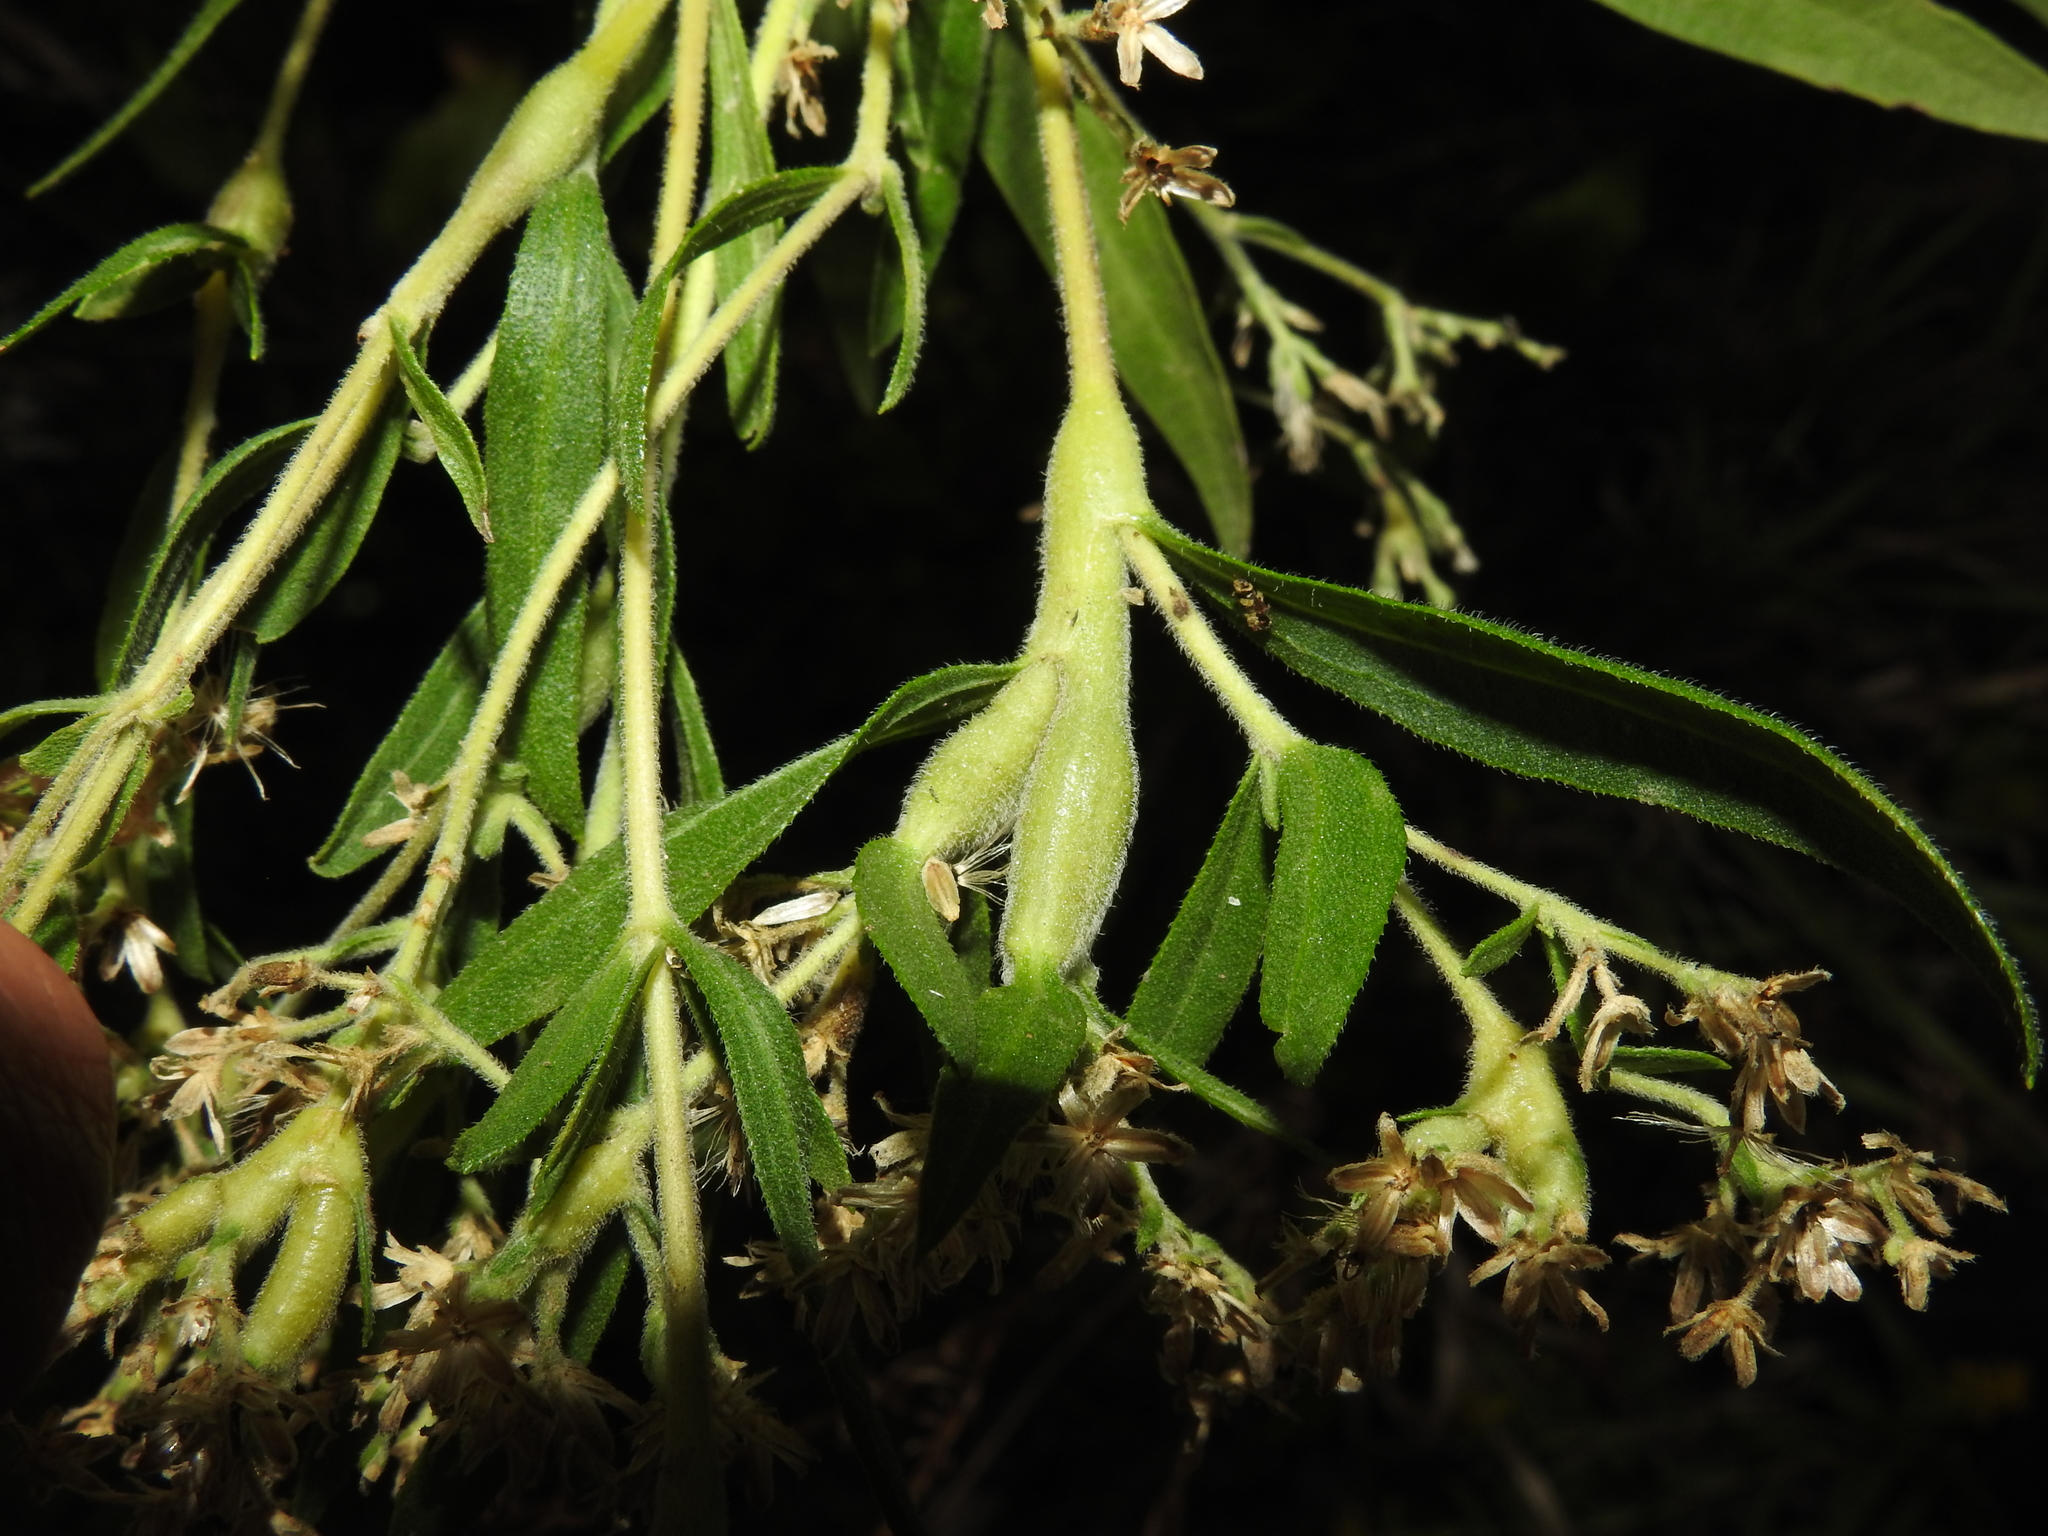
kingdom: Animalia
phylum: Arthropoda
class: Insecta
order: Diptera
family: Cecidomyiidae
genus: Neolasioptera
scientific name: Neolasioptera perfoliata
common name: Boneset stem midge
